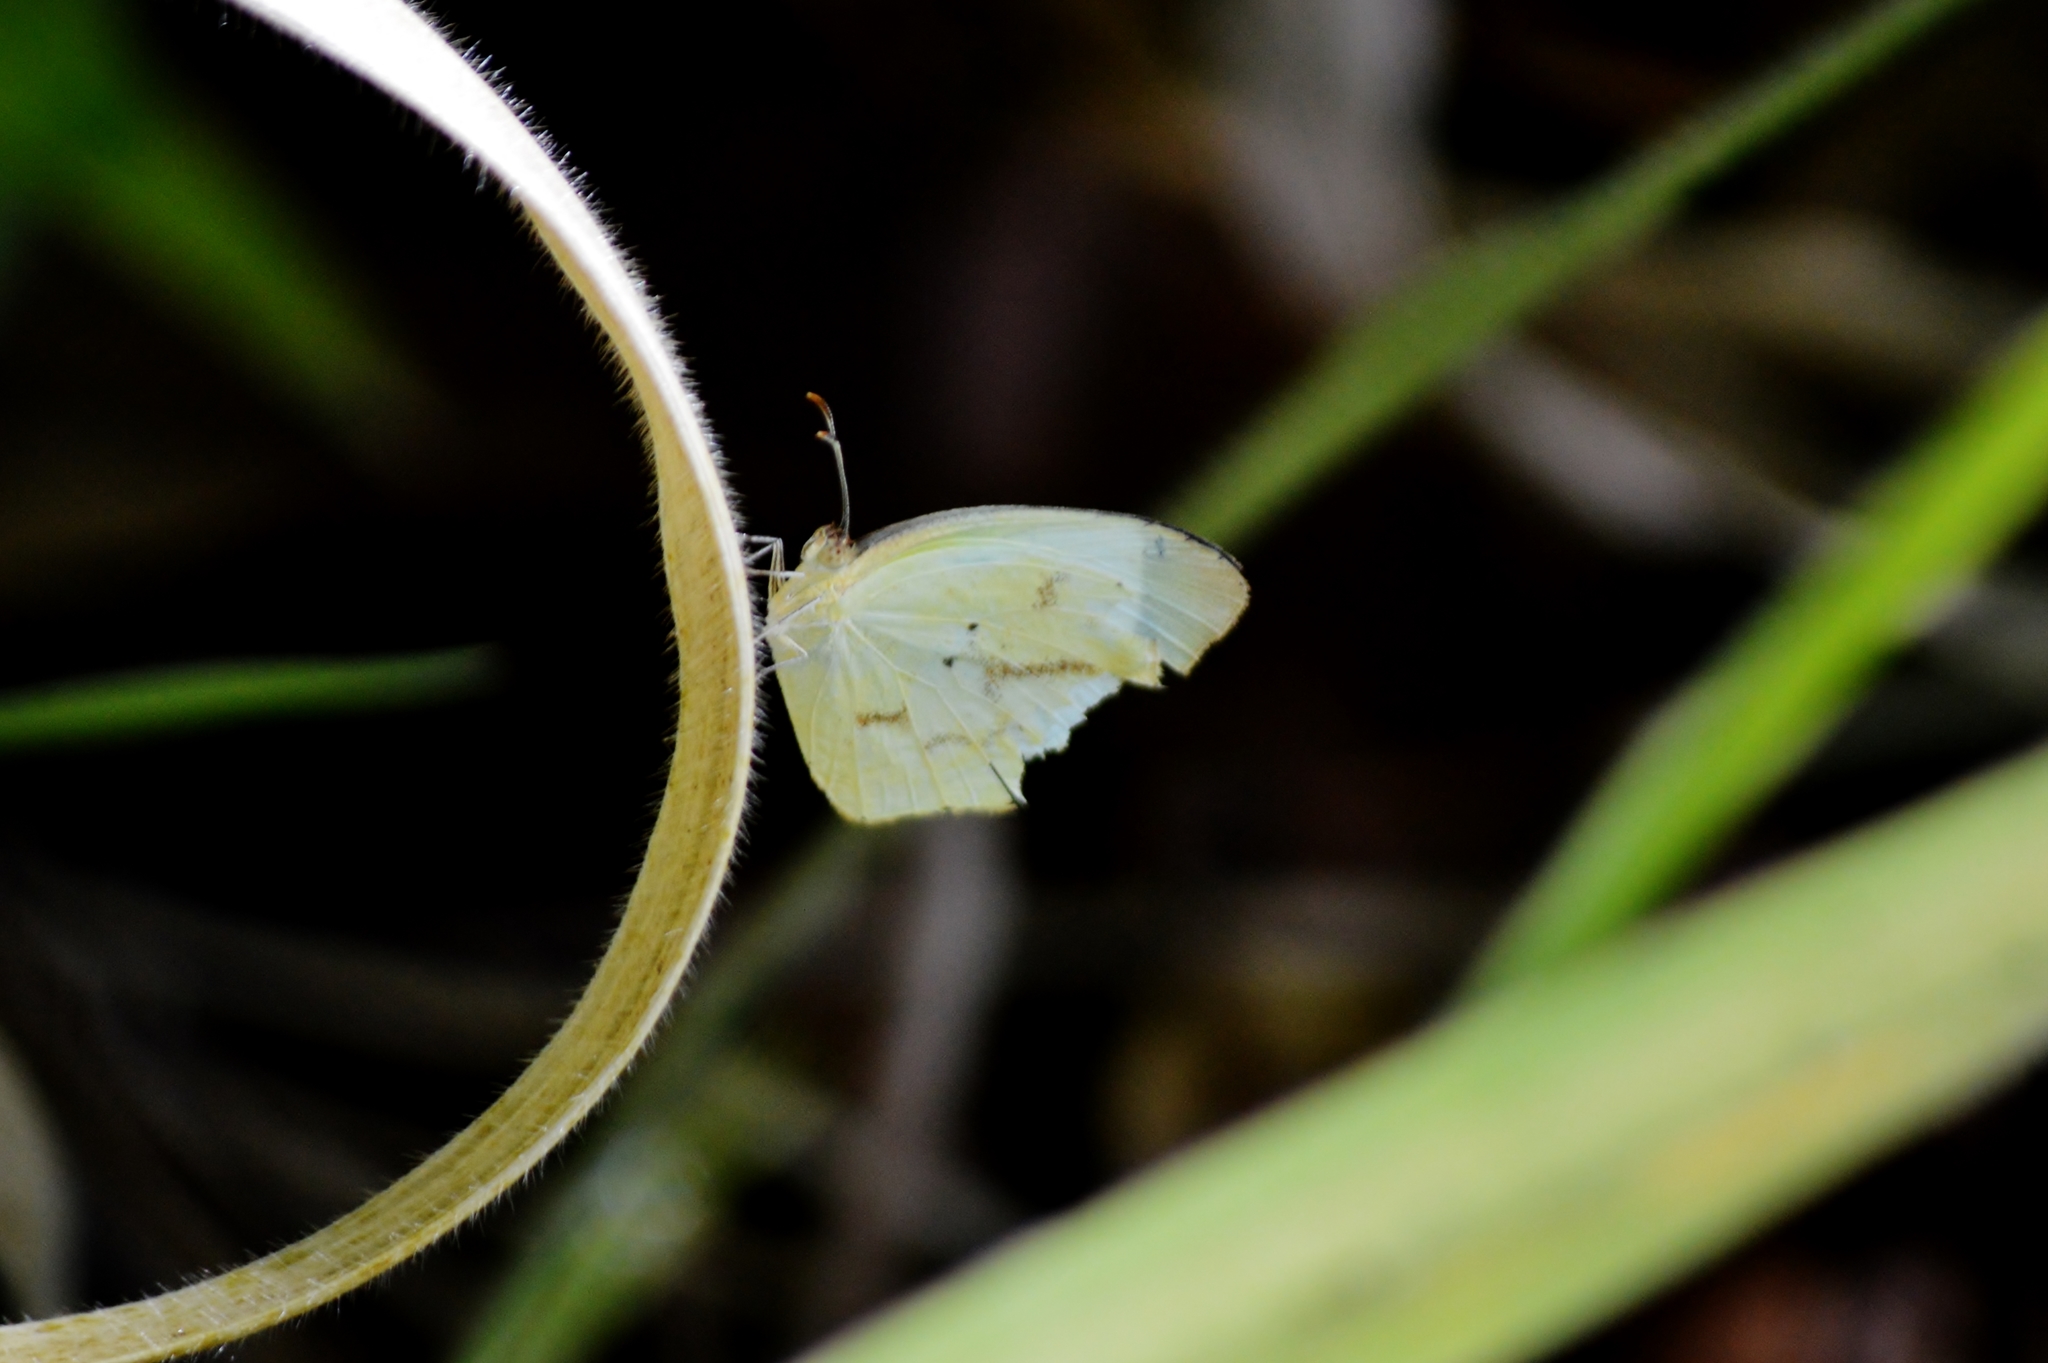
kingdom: Animalia
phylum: Arthropoda
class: Insecta
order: Lepidoptera
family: Pieridae
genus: Abaeis
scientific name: Abaeis albula
